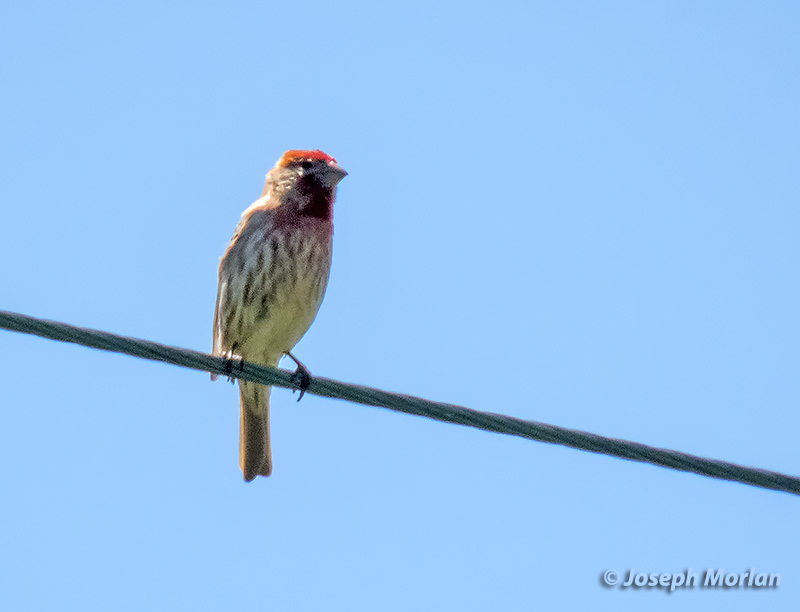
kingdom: Animalia
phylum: Chordata
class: Aves
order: Passeriformes
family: Fringillidae
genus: Haemorhous
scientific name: Haemorhous mexicanus
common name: House finch
